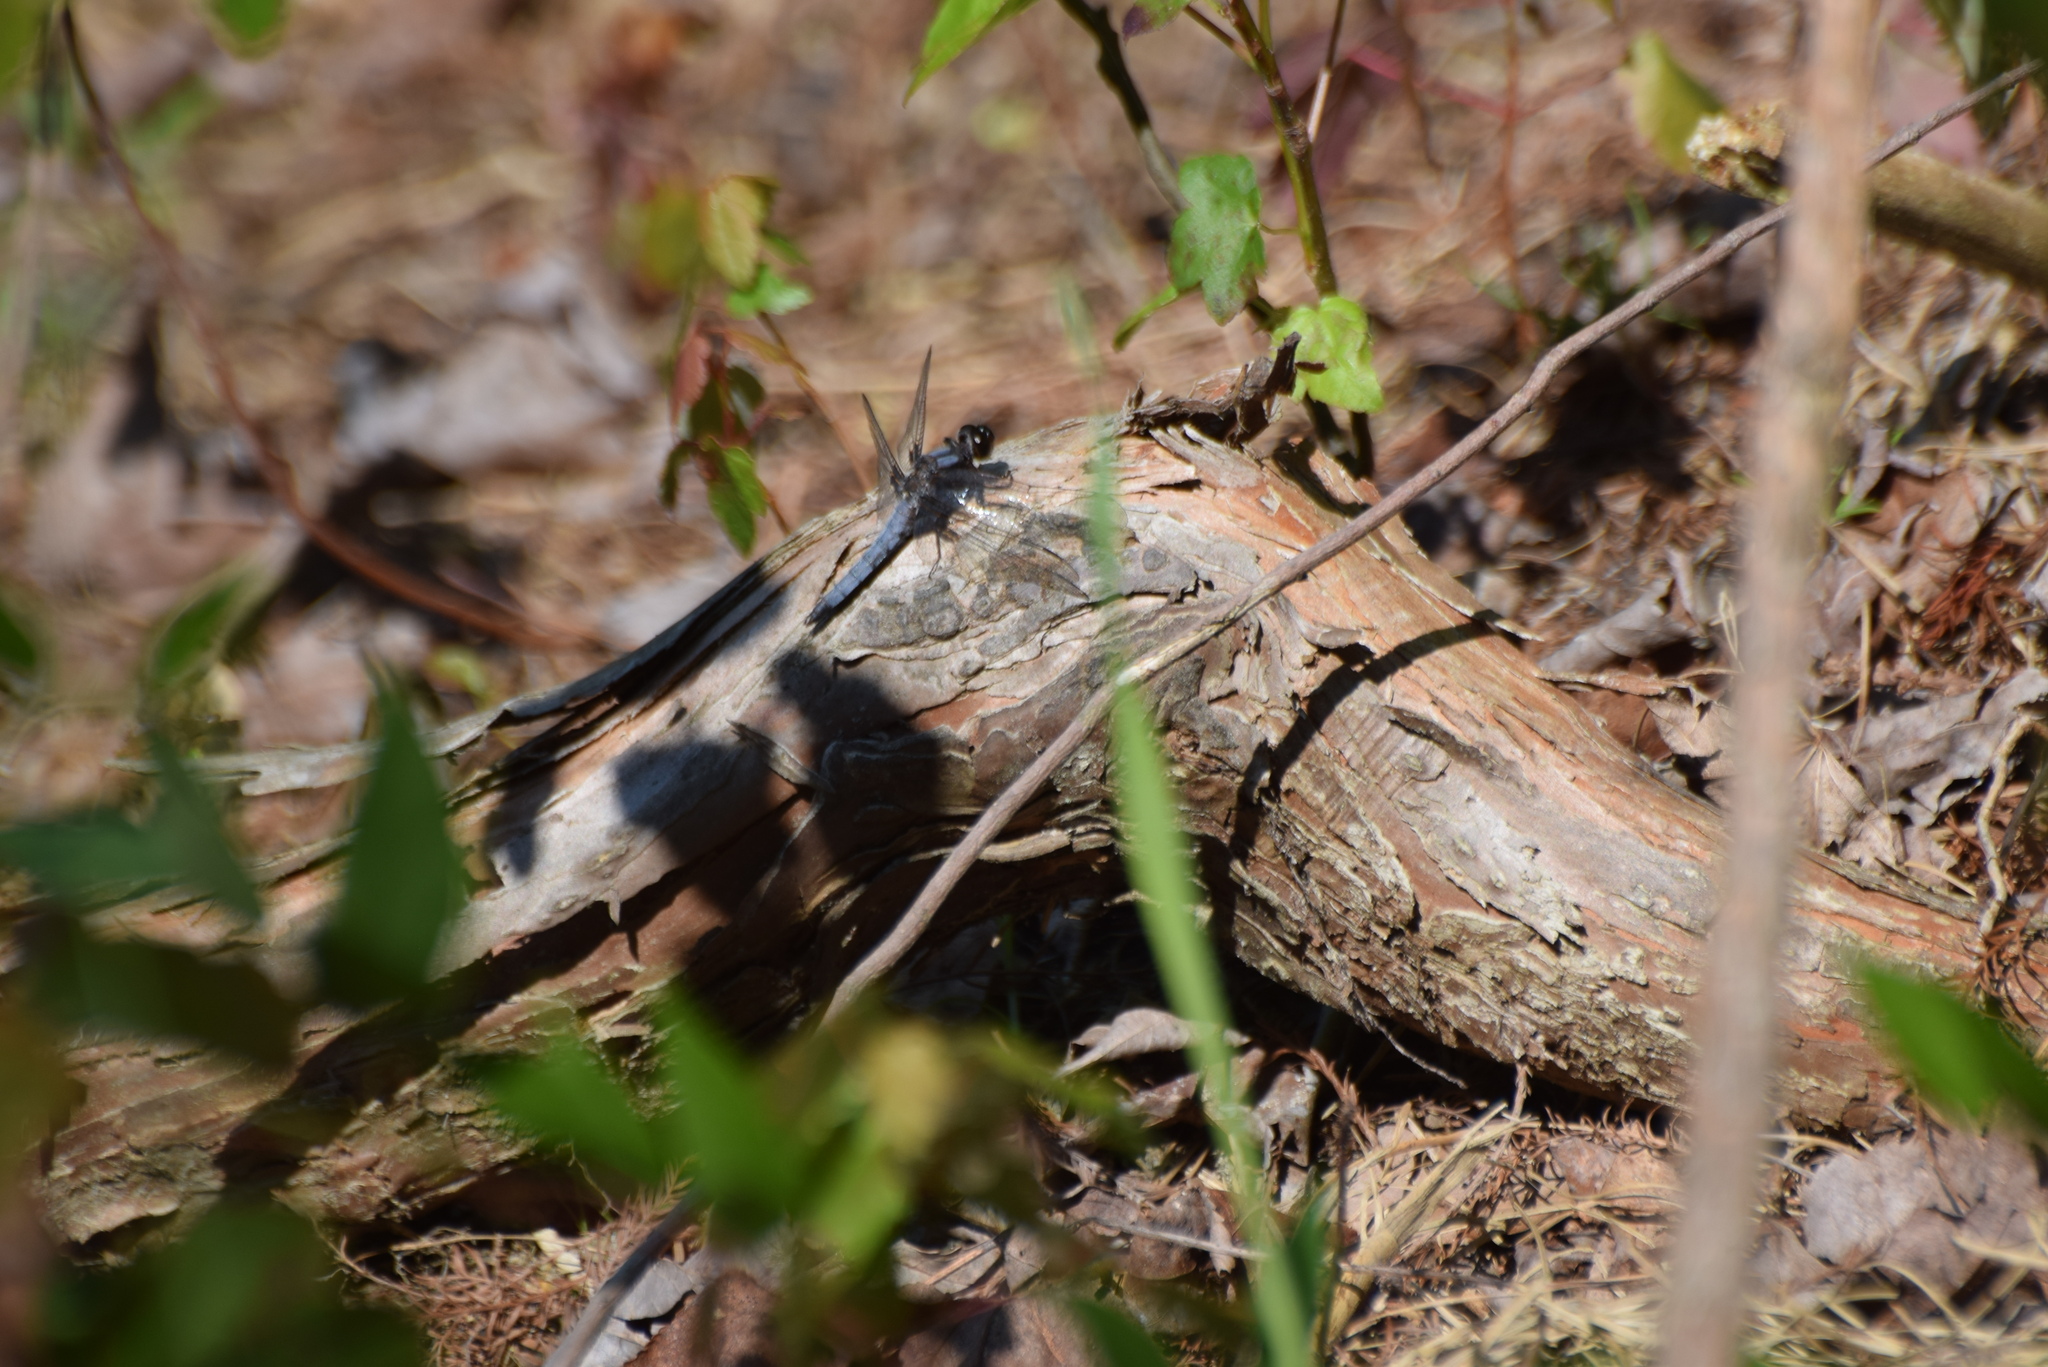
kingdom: Animalia
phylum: Arthropoda
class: Insecta
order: Odonata
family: Libellulidae
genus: Ladona
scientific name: Ladona deplanata
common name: Blue corporal
